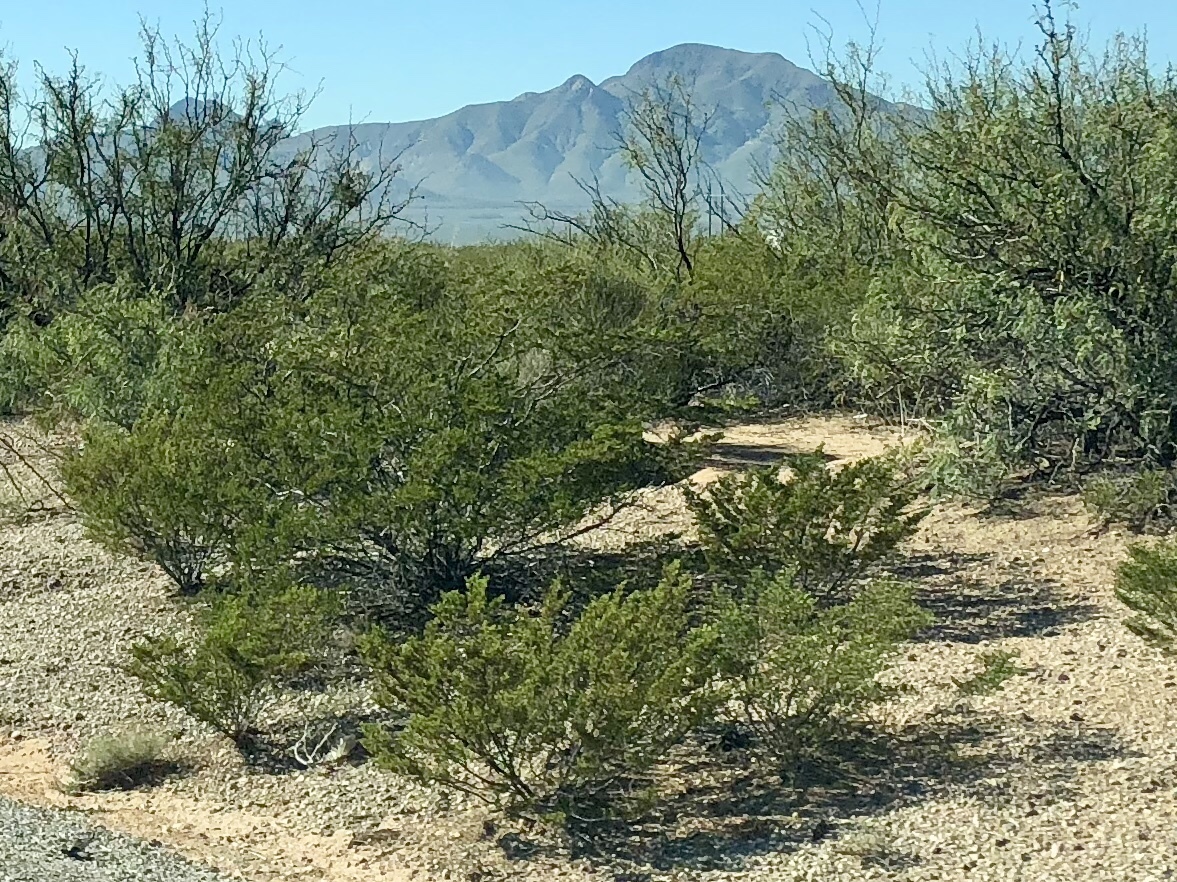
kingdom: Plantae
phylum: Tracheophyta
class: Magnoliopsida
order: Zygophyllales
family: Zygophyllaceae
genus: Larrea
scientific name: Larrea tridentata
